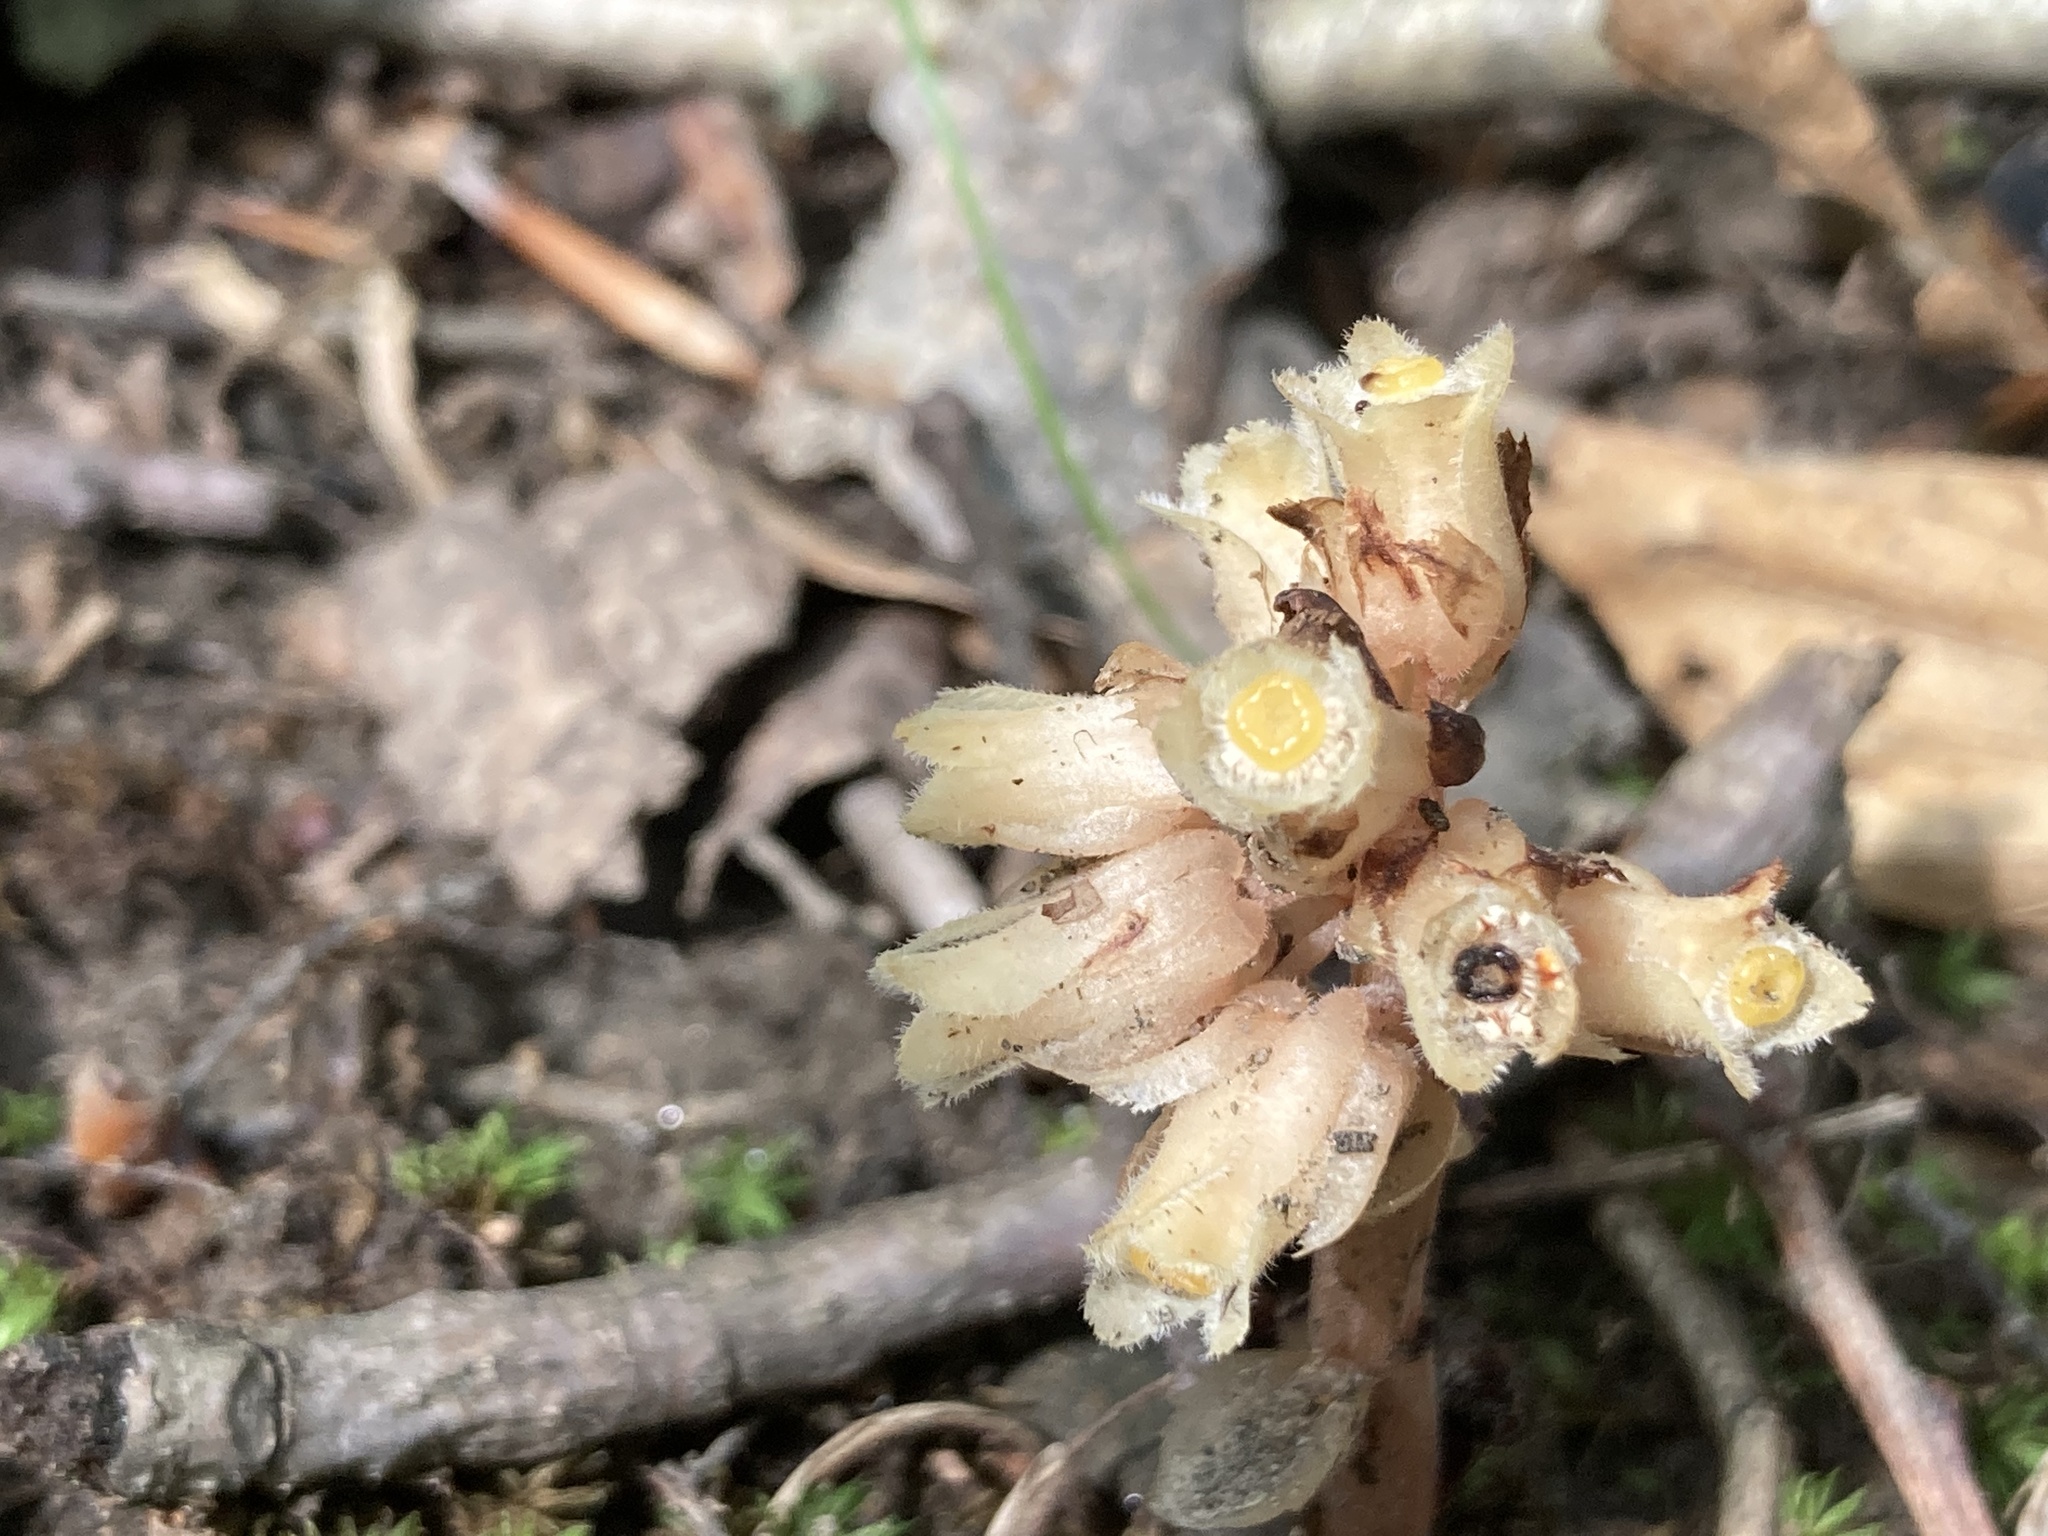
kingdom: Plantae
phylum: Tracheophyta
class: Magnoliopsida
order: Ericales
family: Ericaceae
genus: Hypopitys
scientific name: Hypopitys monotropa
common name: Yellow bird's-nest
